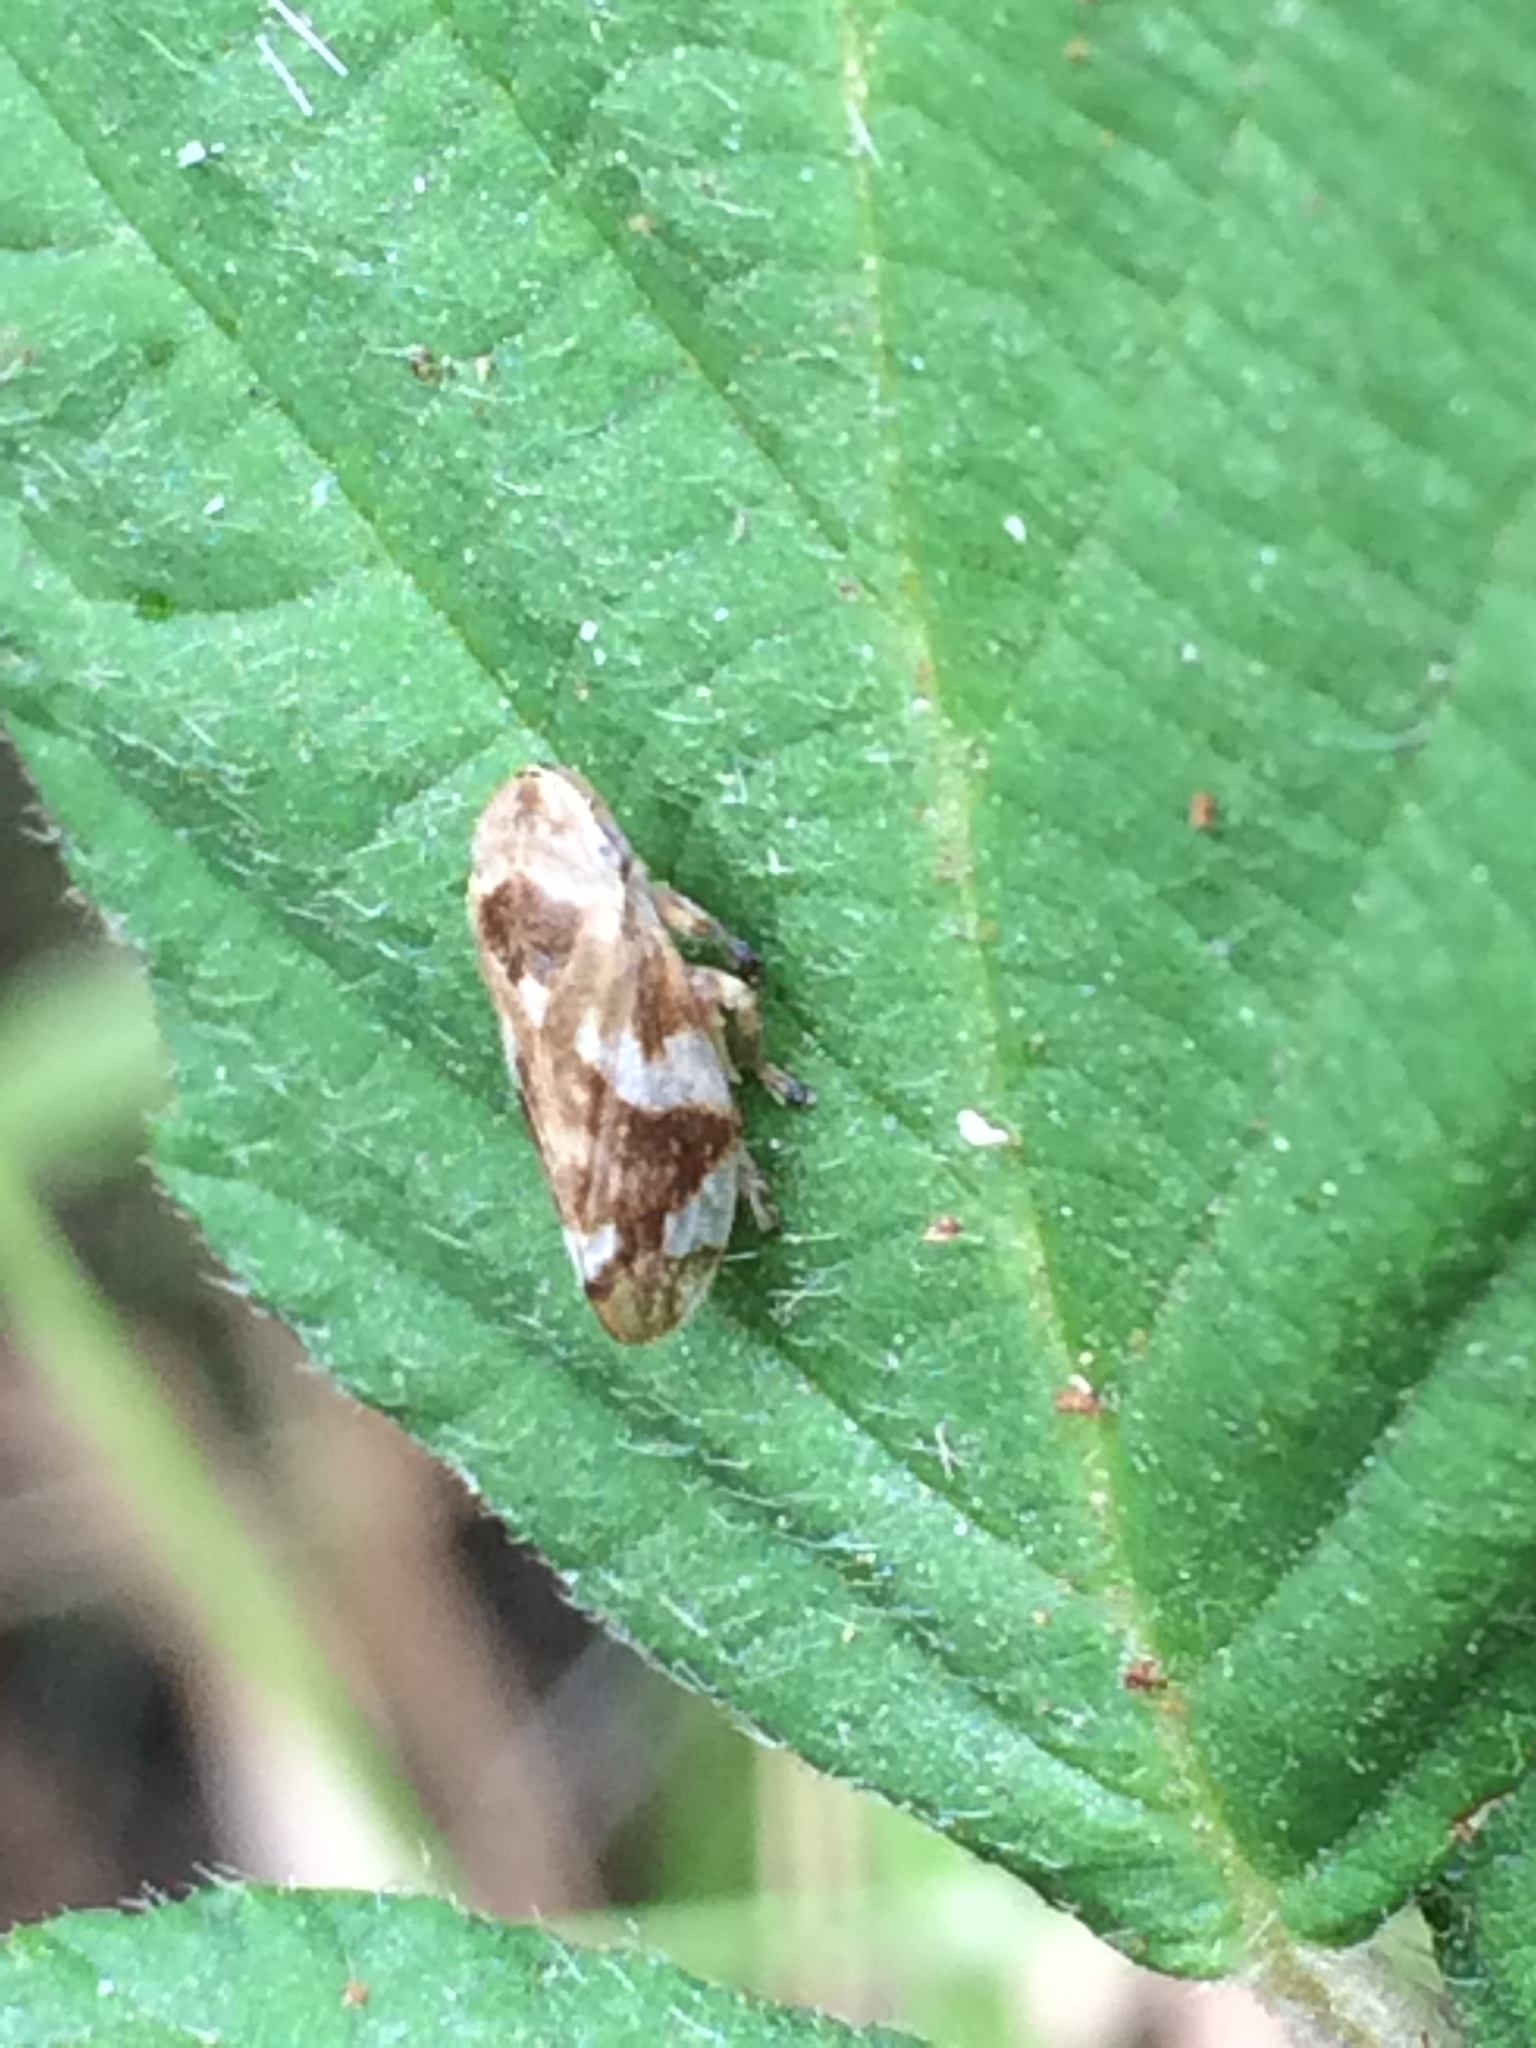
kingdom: Animalia
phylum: Arthropoda
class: Insecta
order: Hemiptera
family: Aphrophoridae
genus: Philaenus
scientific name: Philaenus spumarius
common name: Meadow spittlebug
